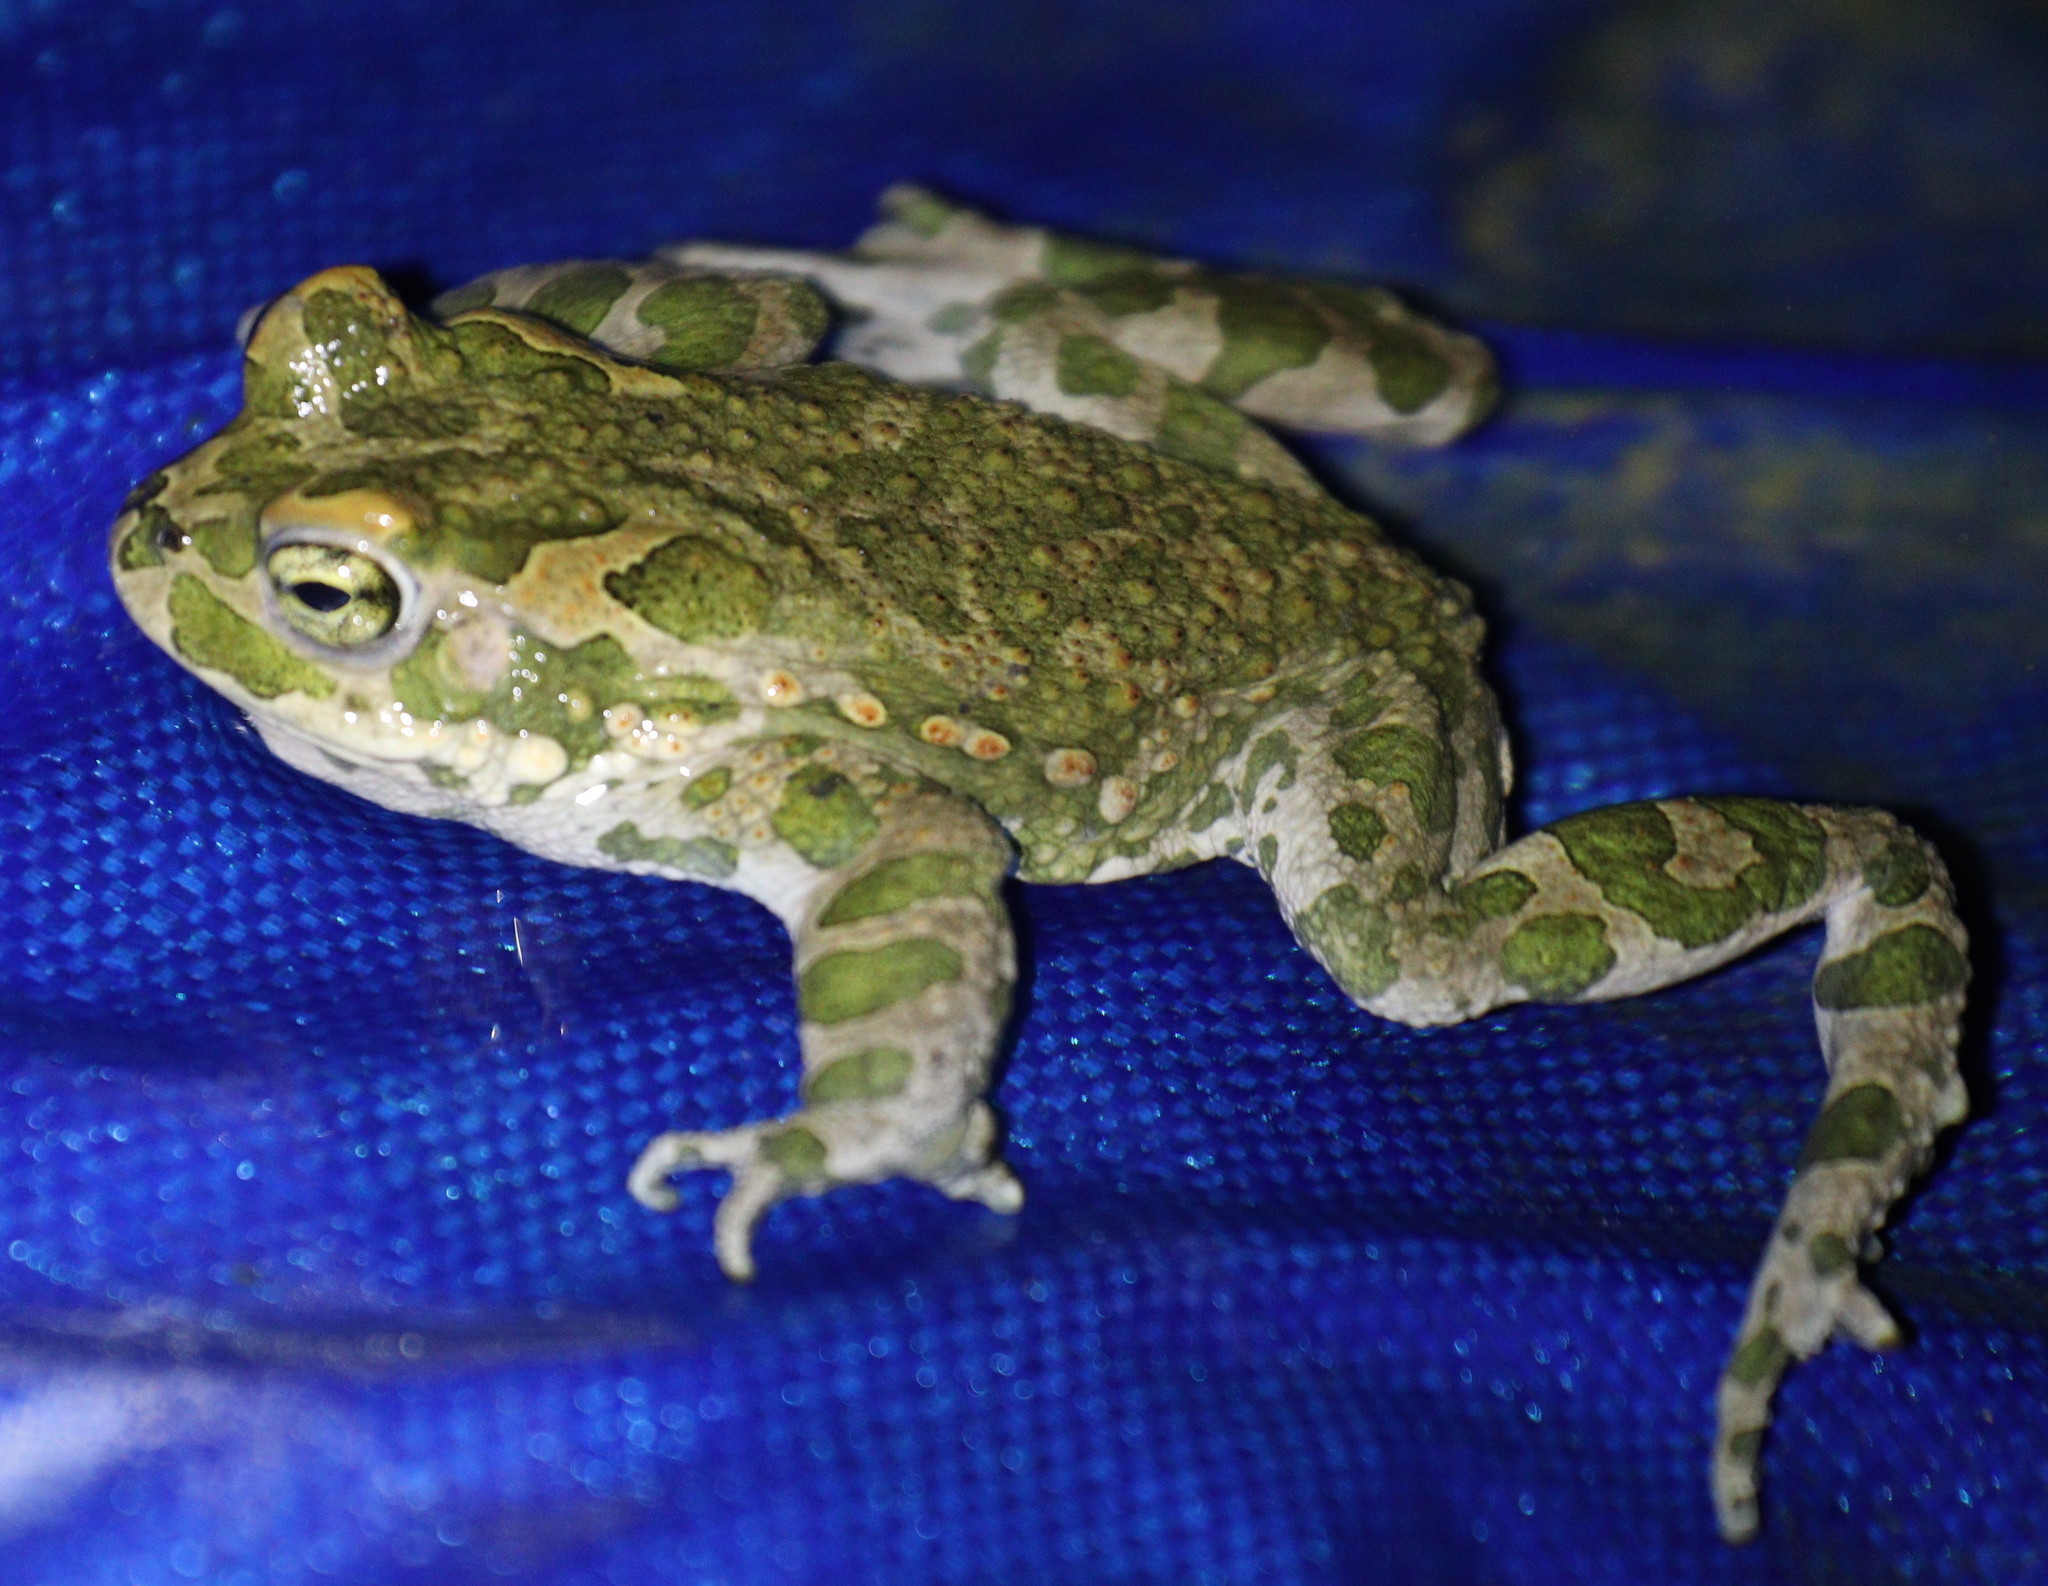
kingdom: Animalia
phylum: Chordata
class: Amphibia
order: Anura
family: Bufonidae
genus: Bufotes
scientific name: Bufotes viridis
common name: European green toad
